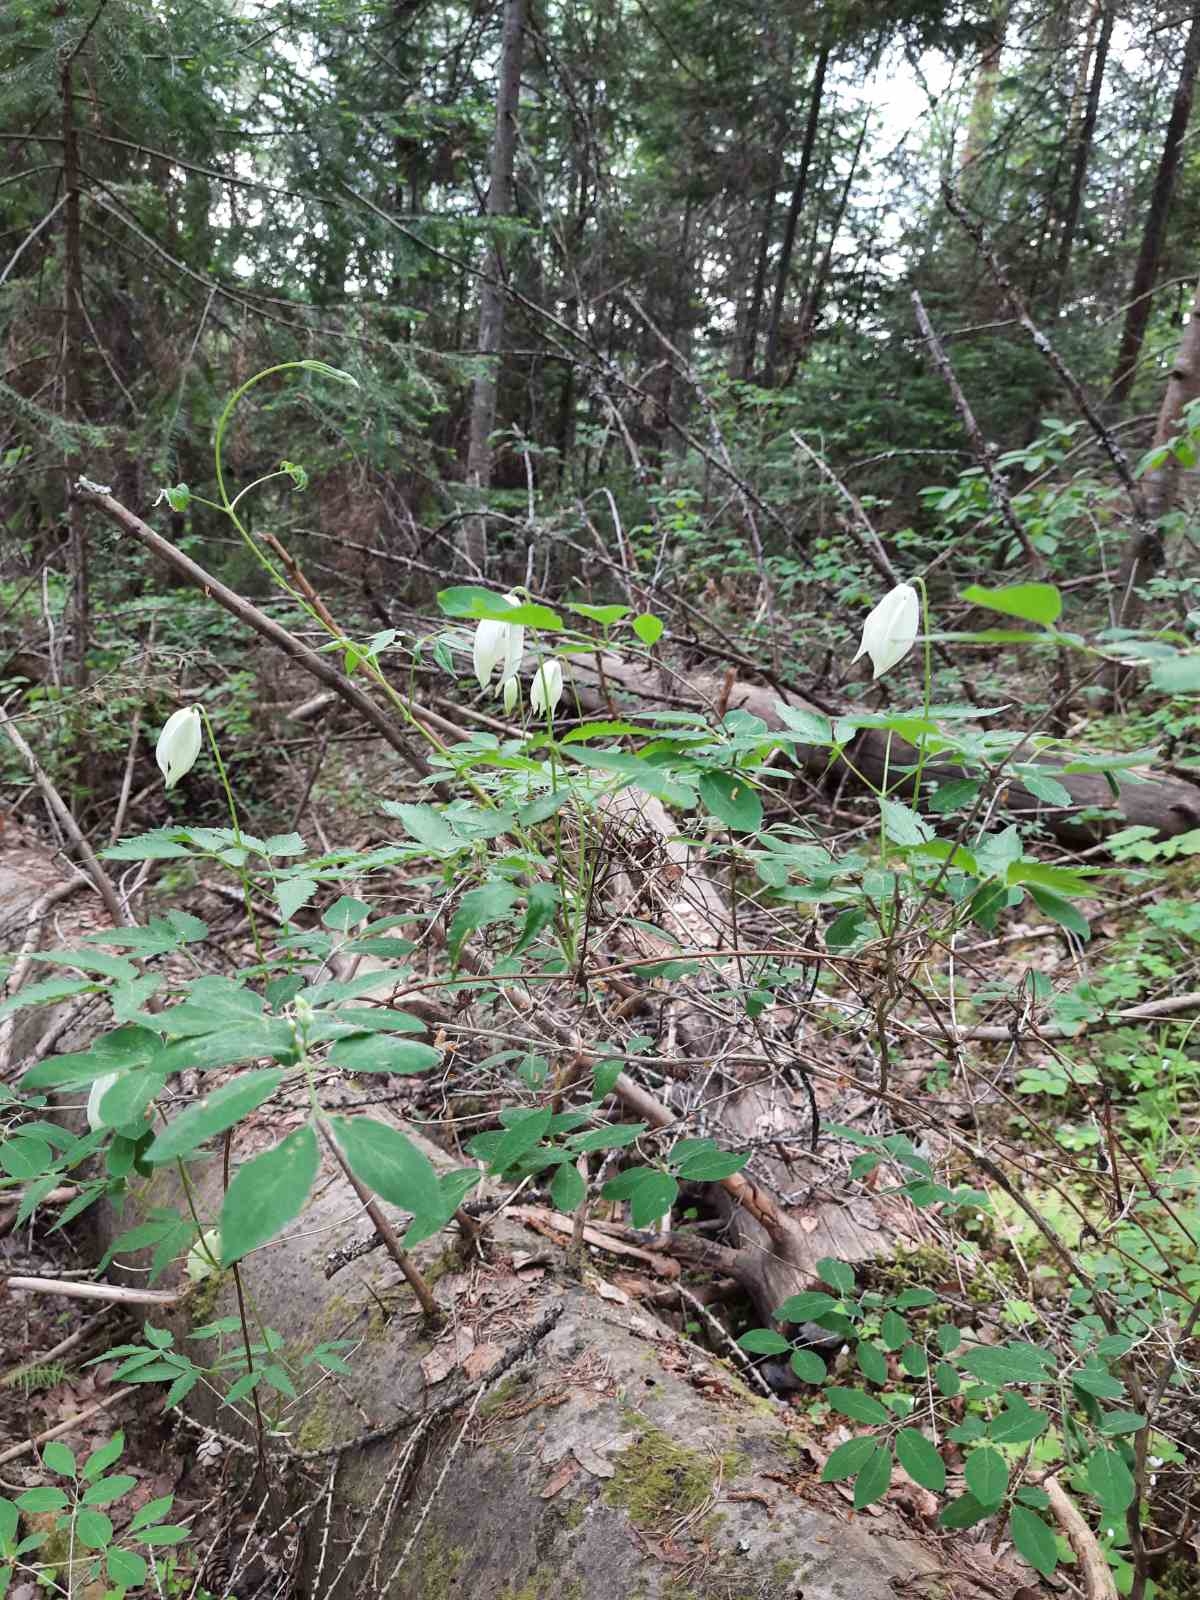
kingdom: Plantae
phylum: Tracheophyta
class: Magnoliopsida
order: Ranunculales
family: Ranunculaceae
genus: Clematis
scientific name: Clematis sibirica
